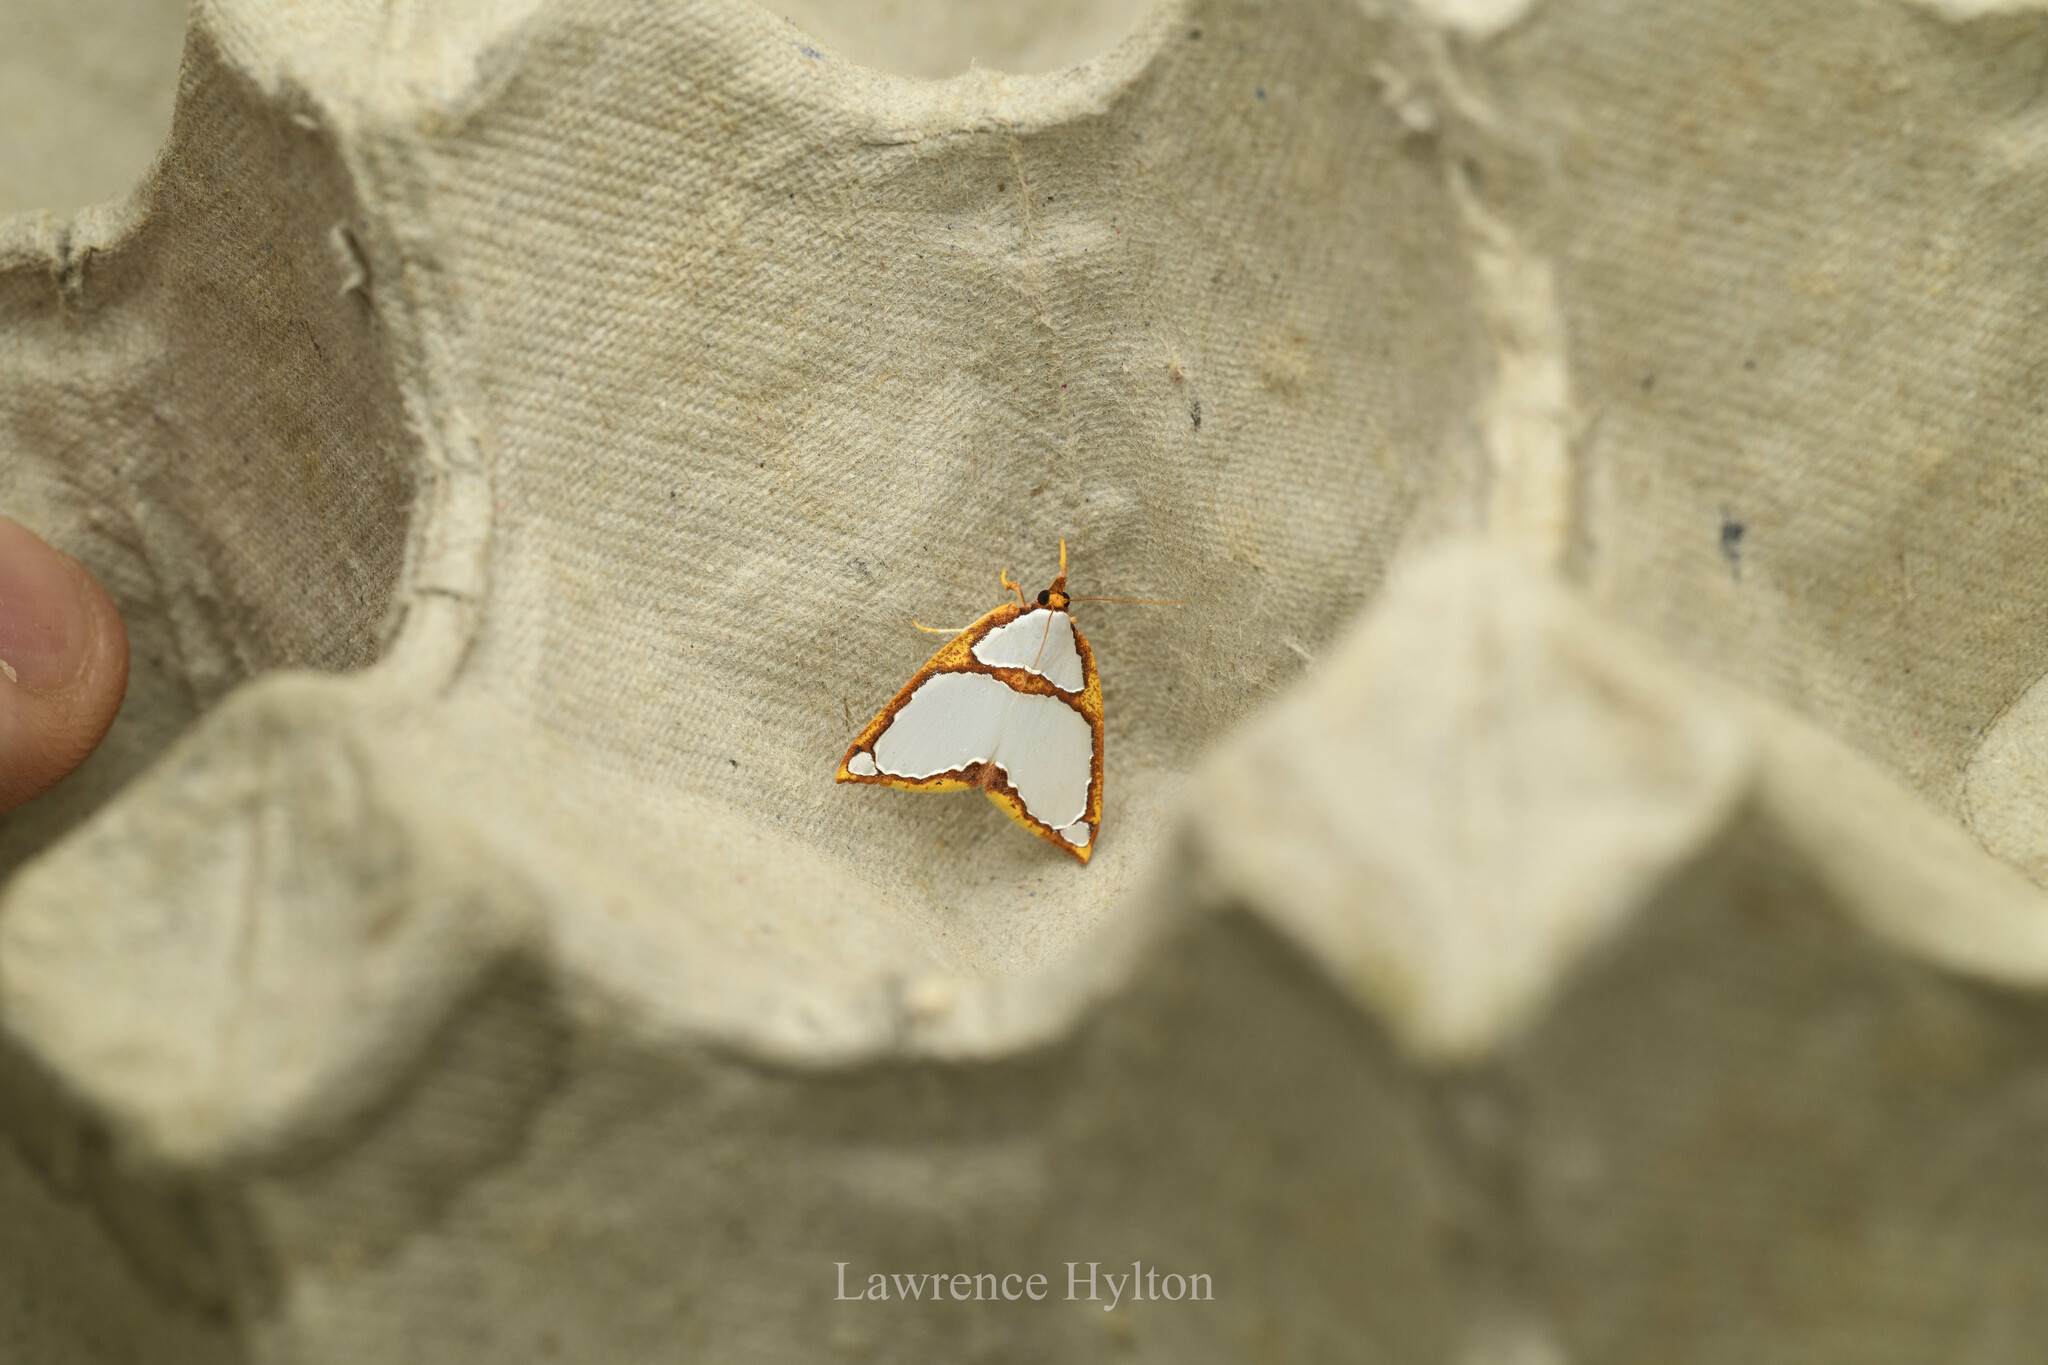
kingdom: Animalia
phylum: Arthropoda
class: Insecta
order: Lepidoptera
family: Nolidae
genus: Titulcia
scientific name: Titulcia confictella
